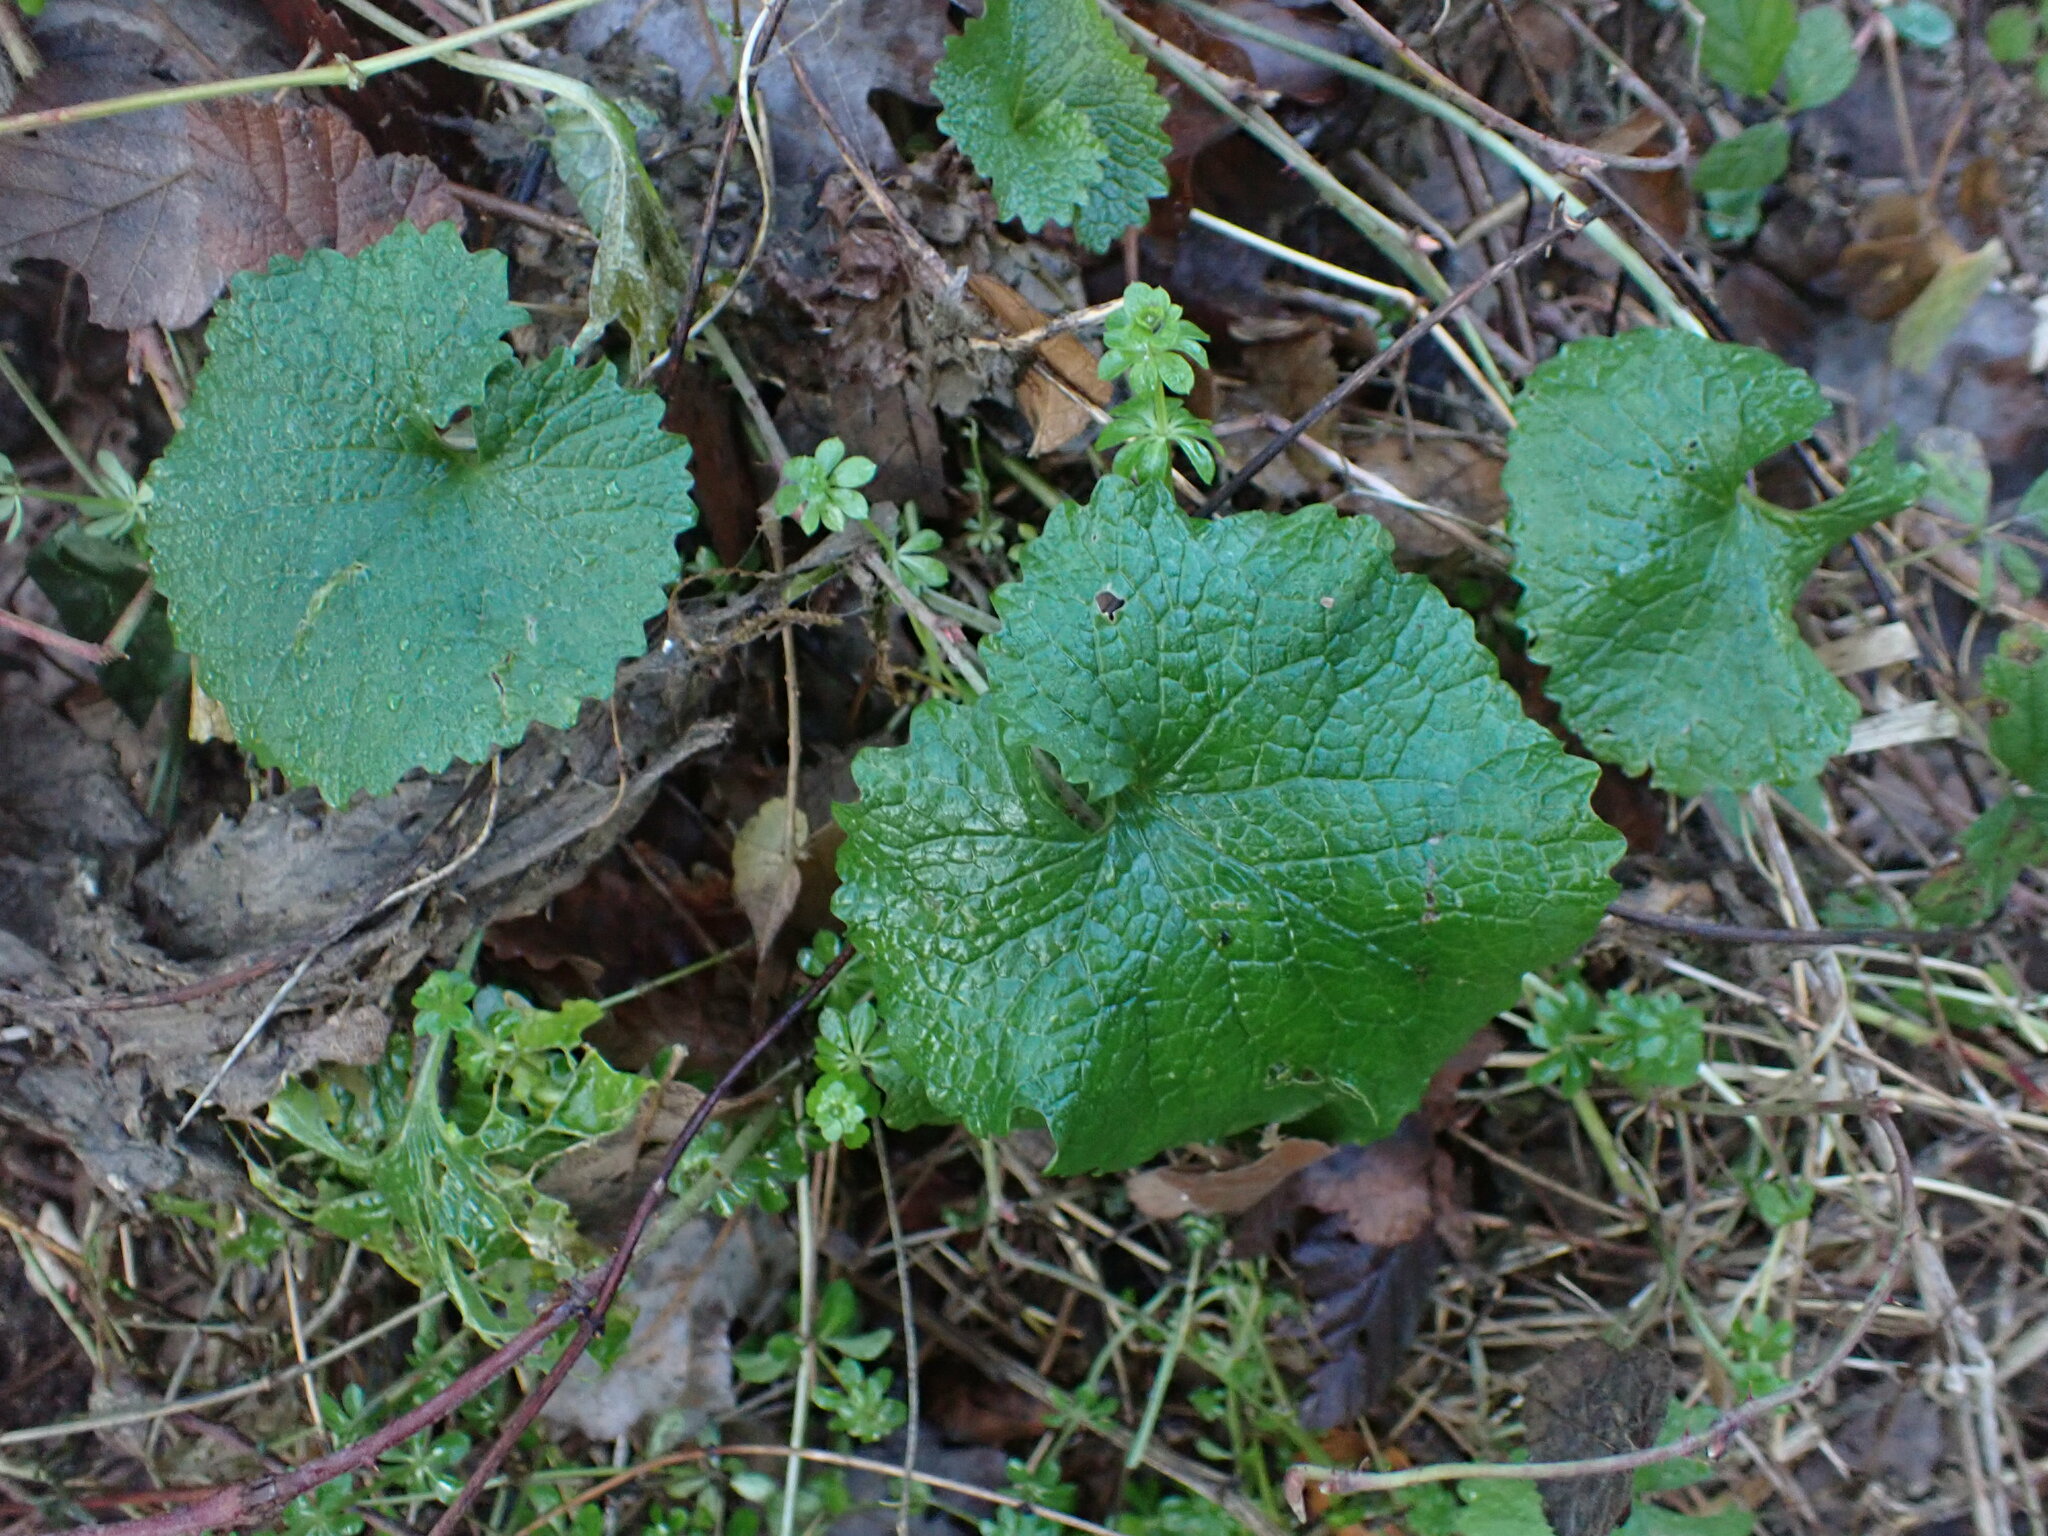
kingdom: Plantae
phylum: Tracheophyta
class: Magnoliopsida
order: Brassicales
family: Brassicaceae
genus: Alliaria
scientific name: Alliaria petiolata
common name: Garlic mustard
